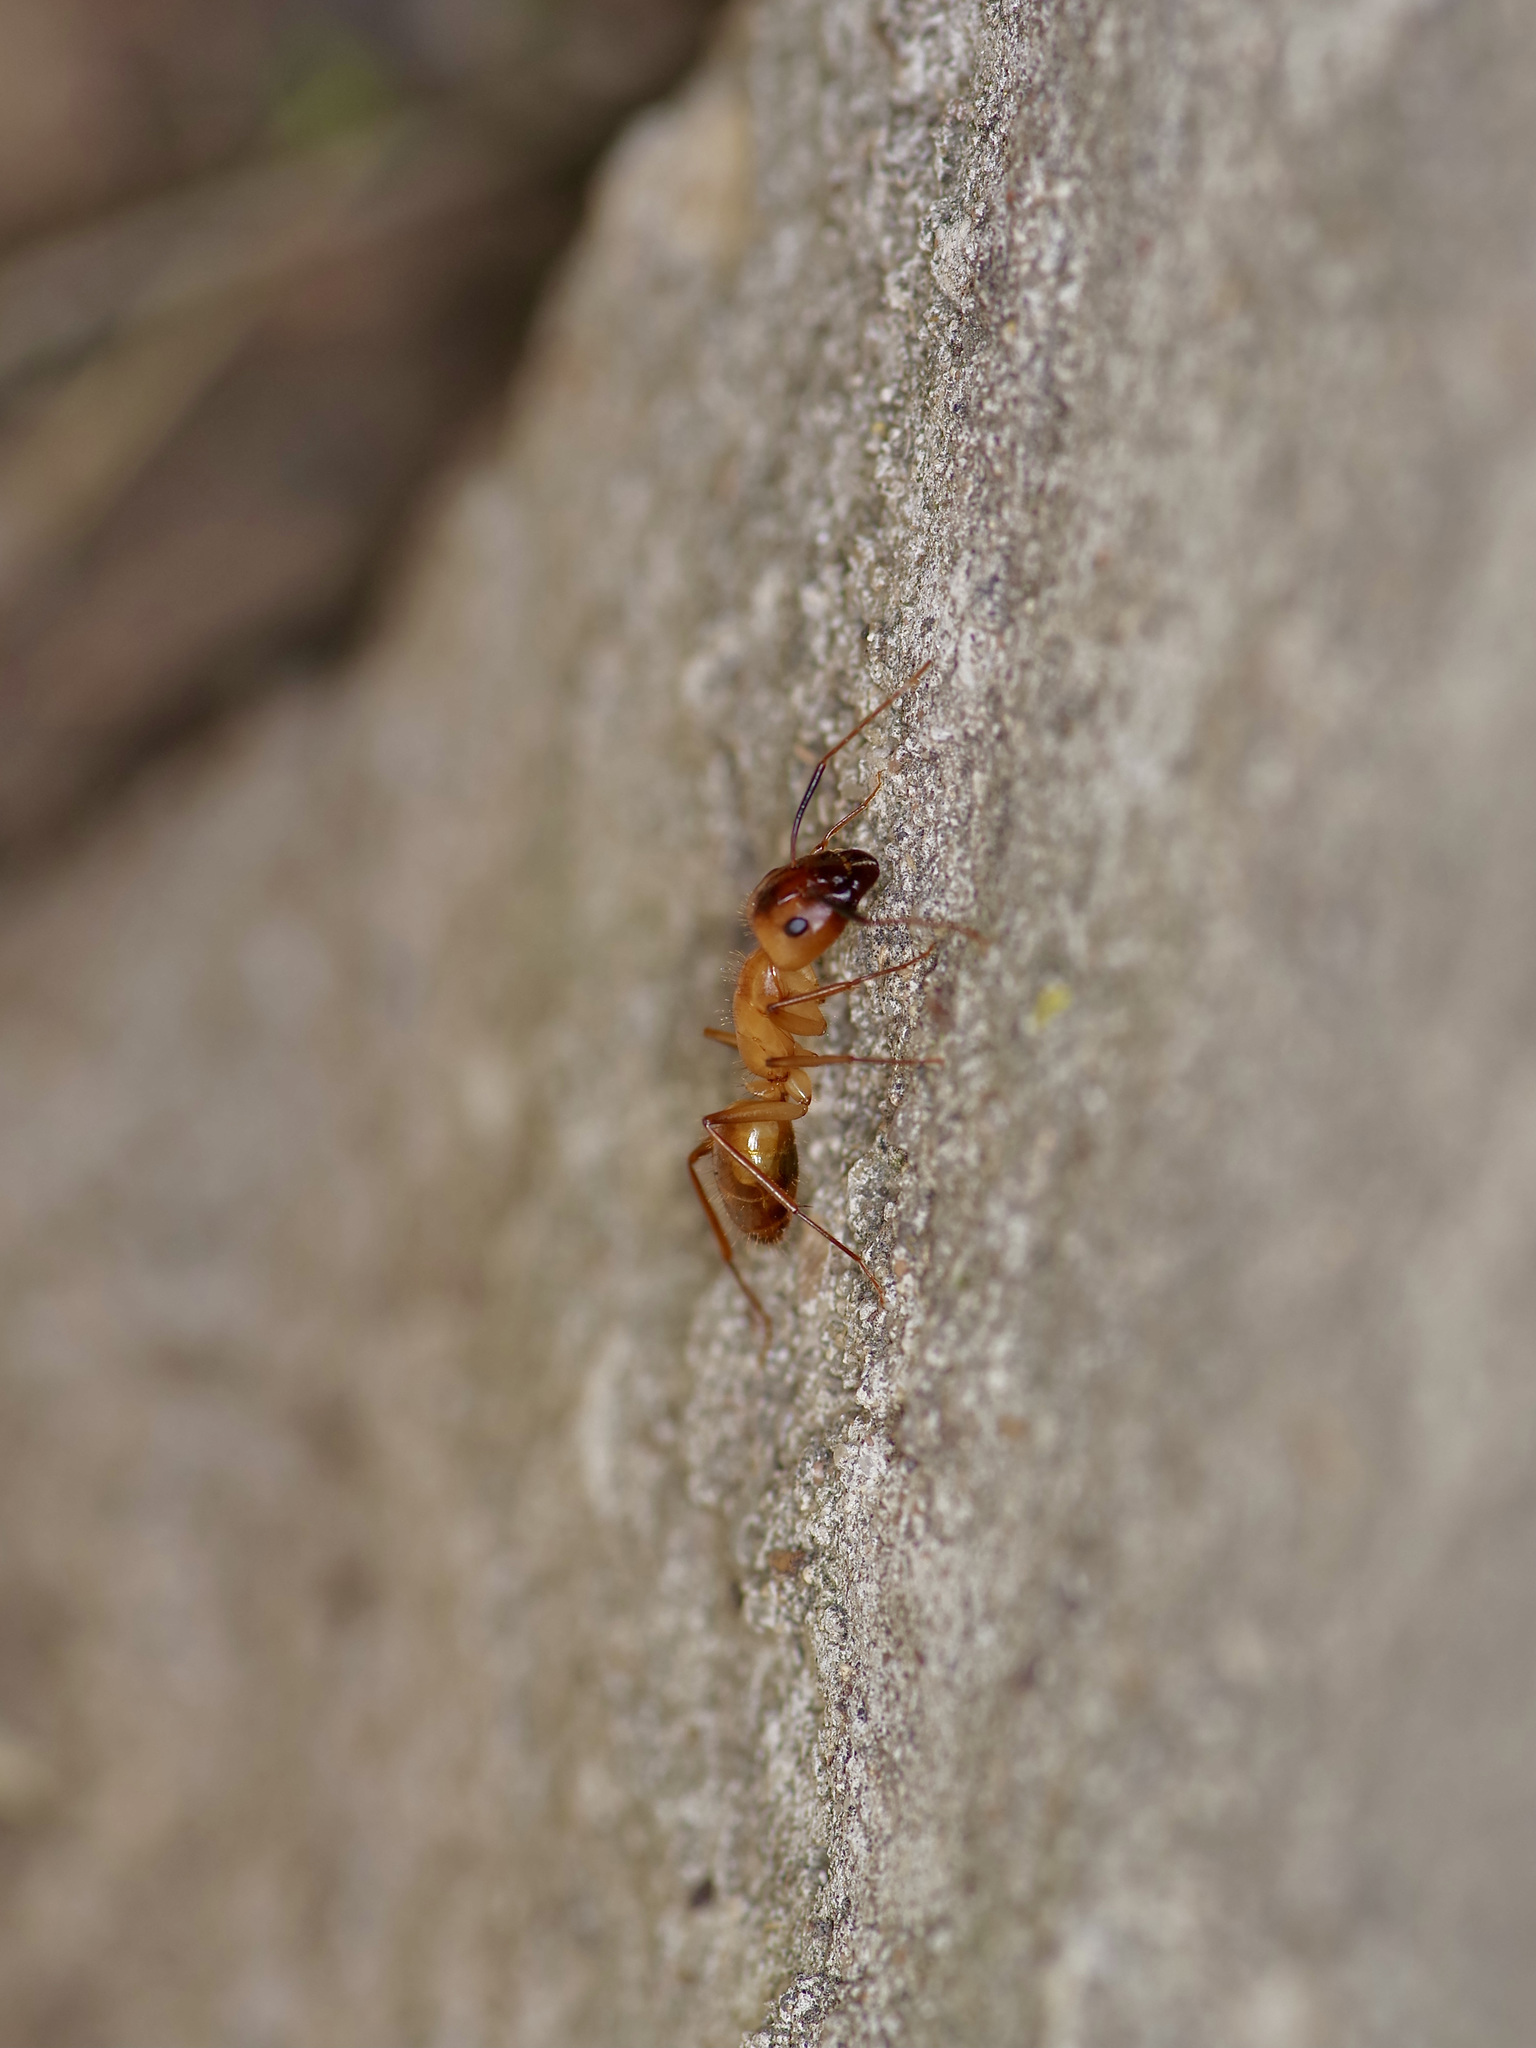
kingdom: Animalia
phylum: Arthropoda
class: Insecta
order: Hymenoptera
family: Formicidae
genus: Camponotus
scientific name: Camponotus festinatus
